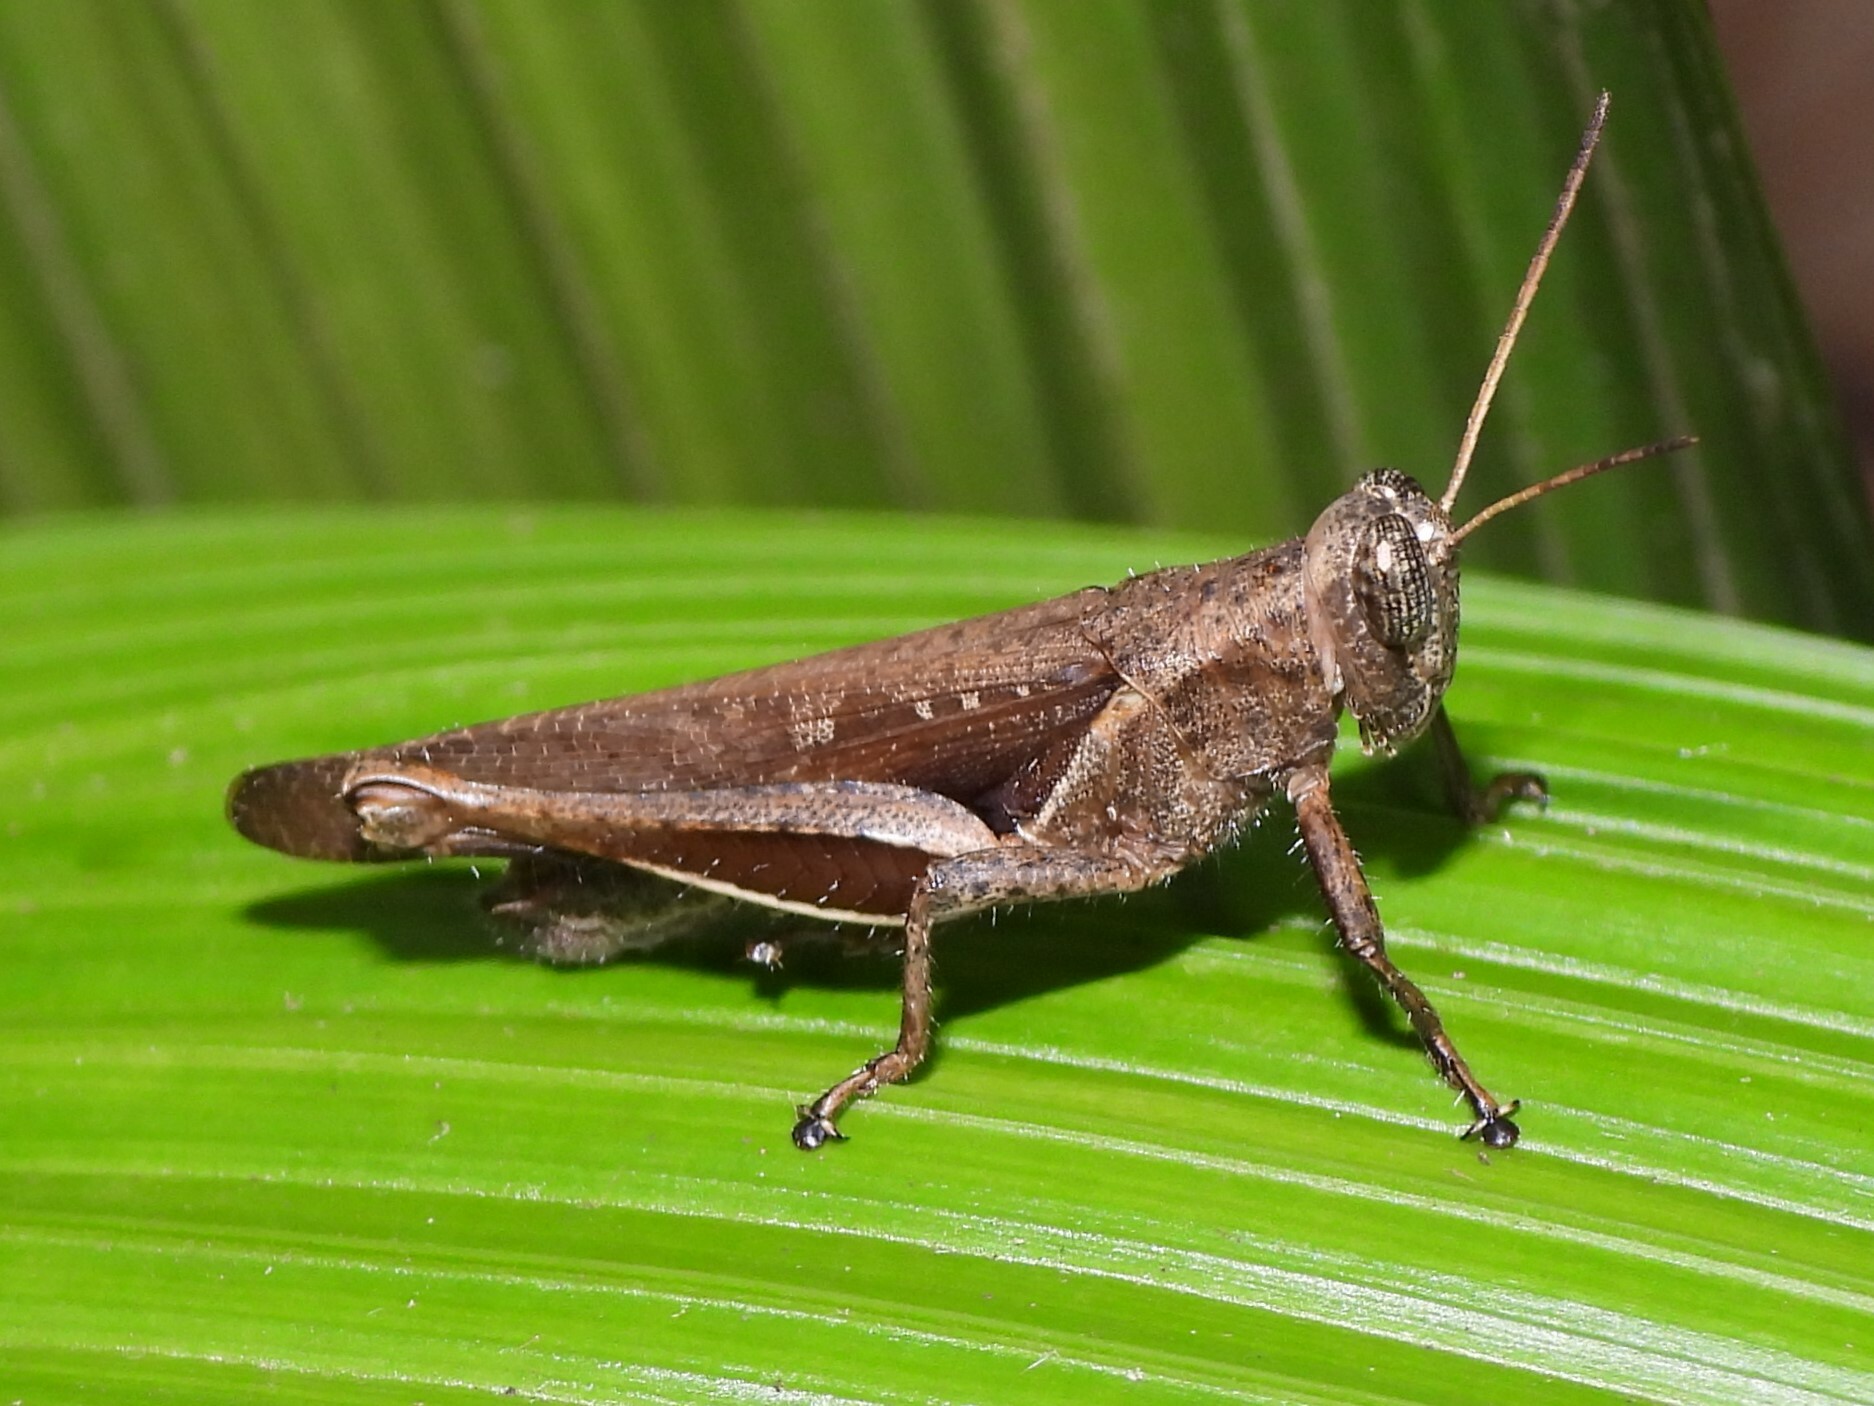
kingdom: Animalia
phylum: Arthropoda
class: Insecta
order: Orthoptera
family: Acrididae
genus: Abracris
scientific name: Abracris flavolineata
